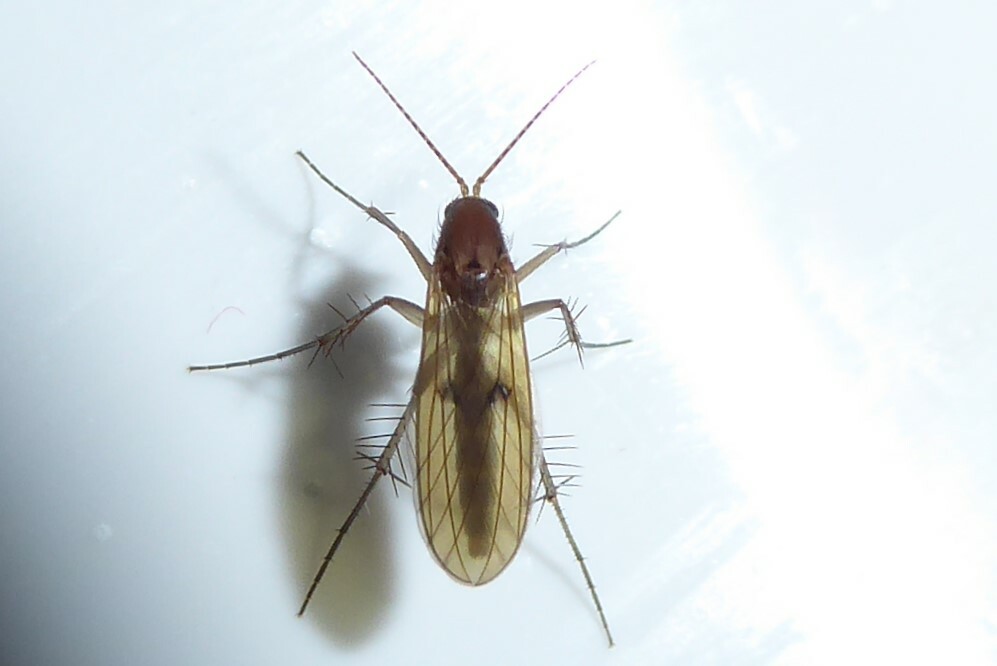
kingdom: Animalia
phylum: Arthropoda
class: Insecta
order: Diptera
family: Mycetophilidae
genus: Mycetophila
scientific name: Mycetophila fagi
